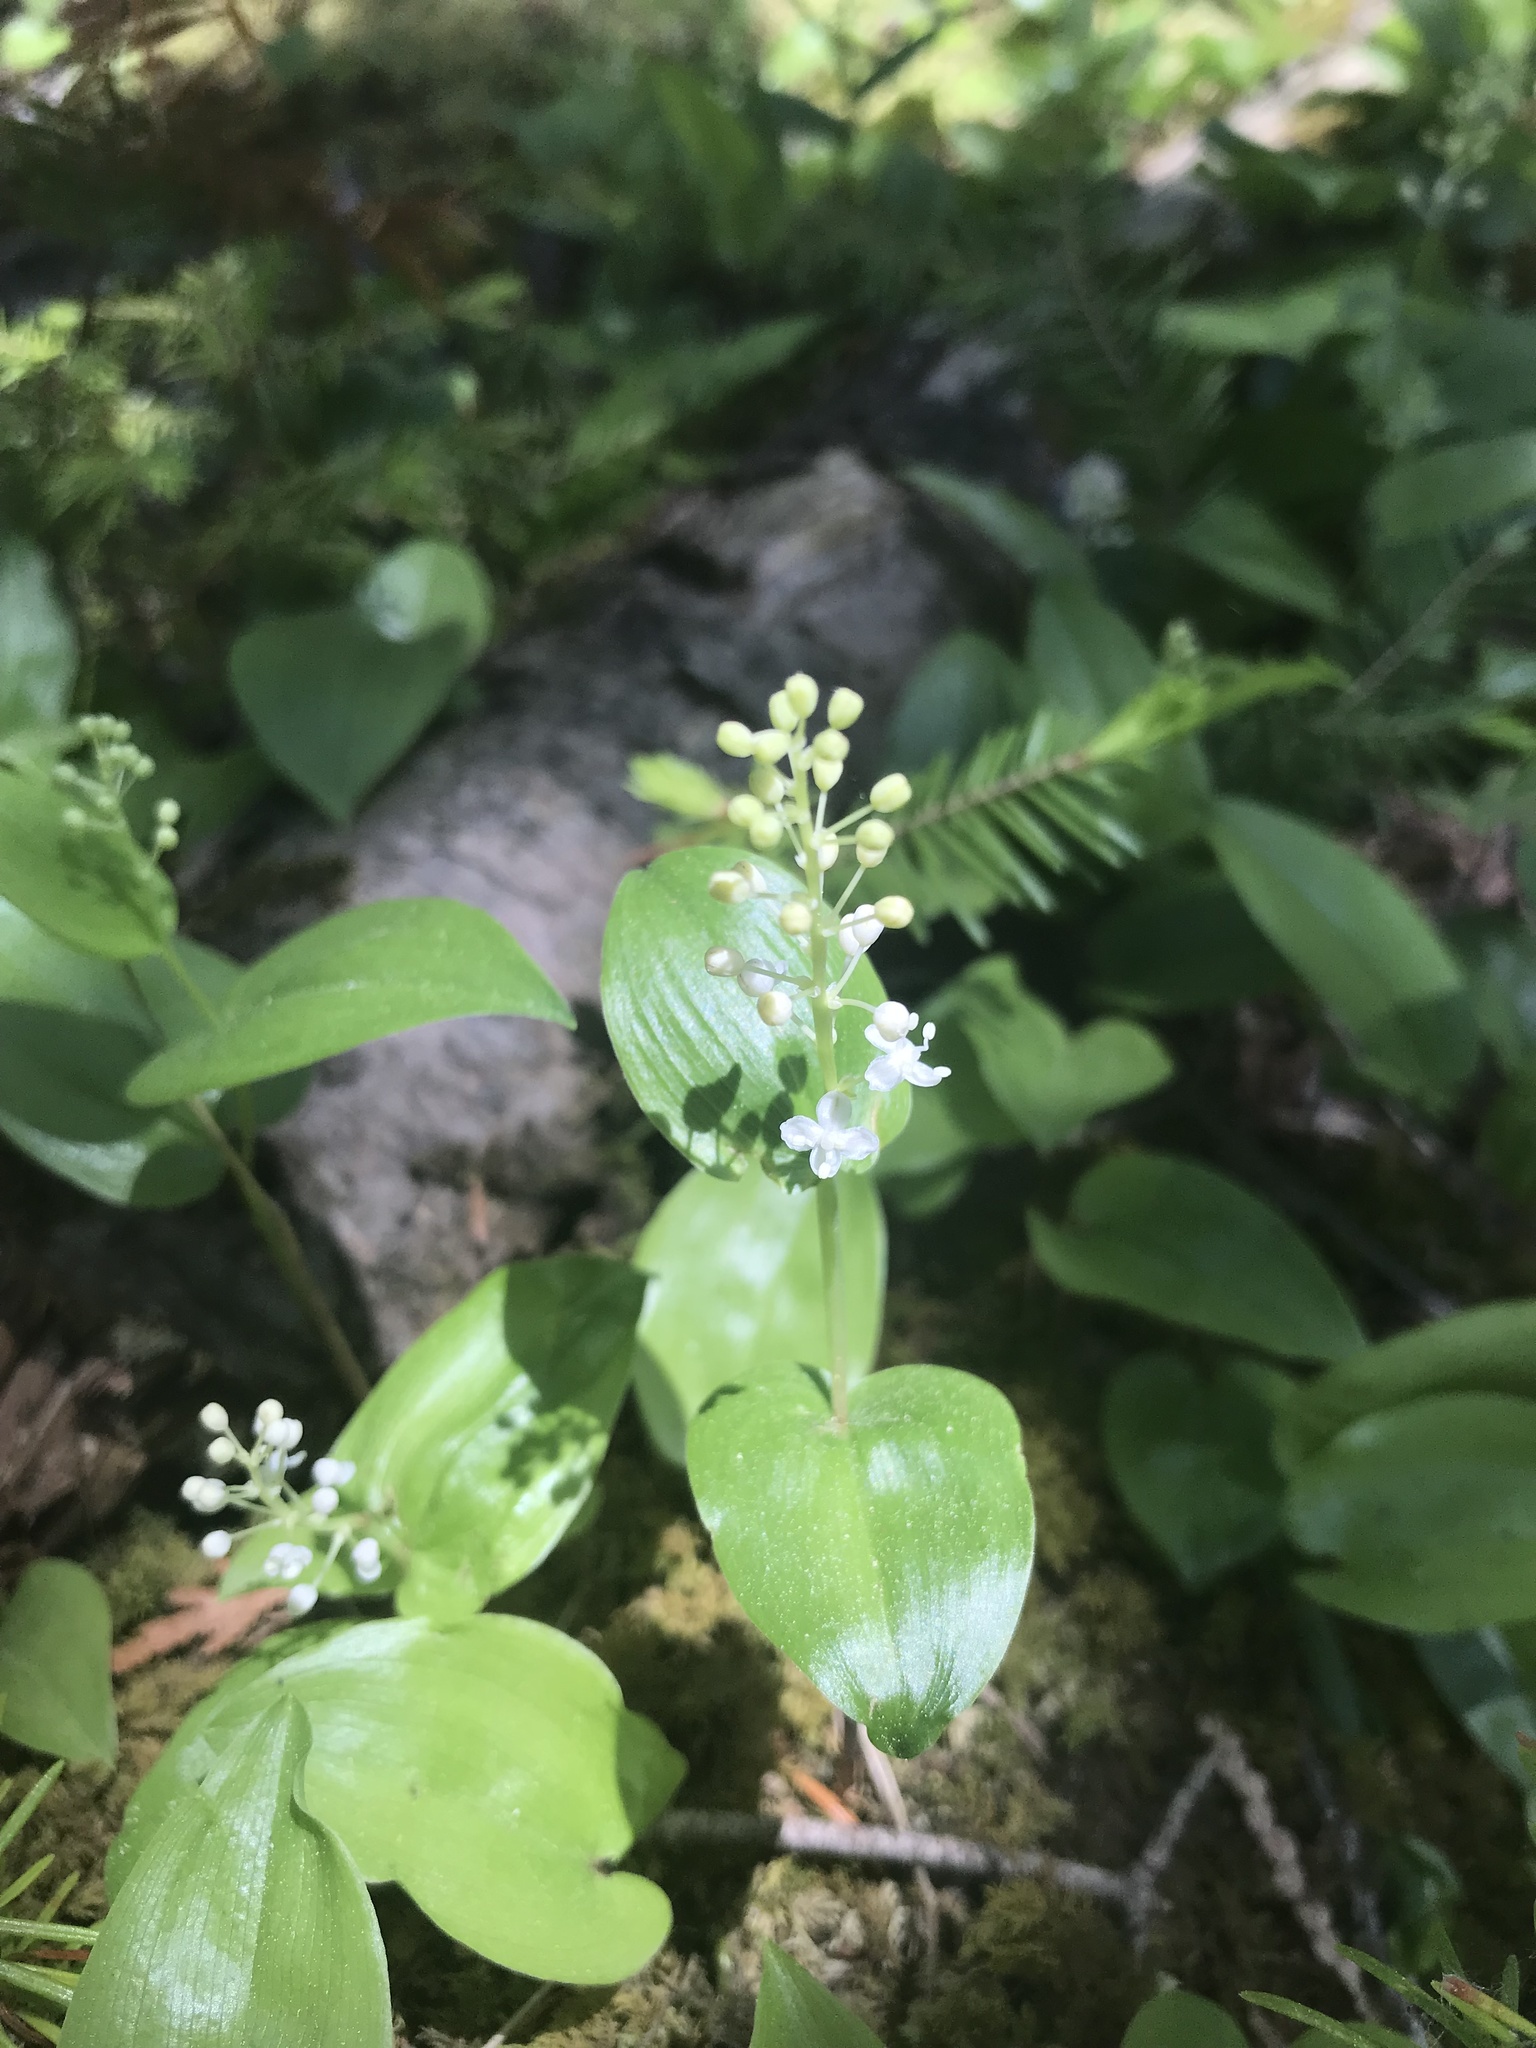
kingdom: Plantae
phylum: Tracheophyta
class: Liliopsida
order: Asparagales
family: Asparagaceae
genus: Maianthemum
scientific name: Maianthemum canadense
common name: False lily-of-the-valley
